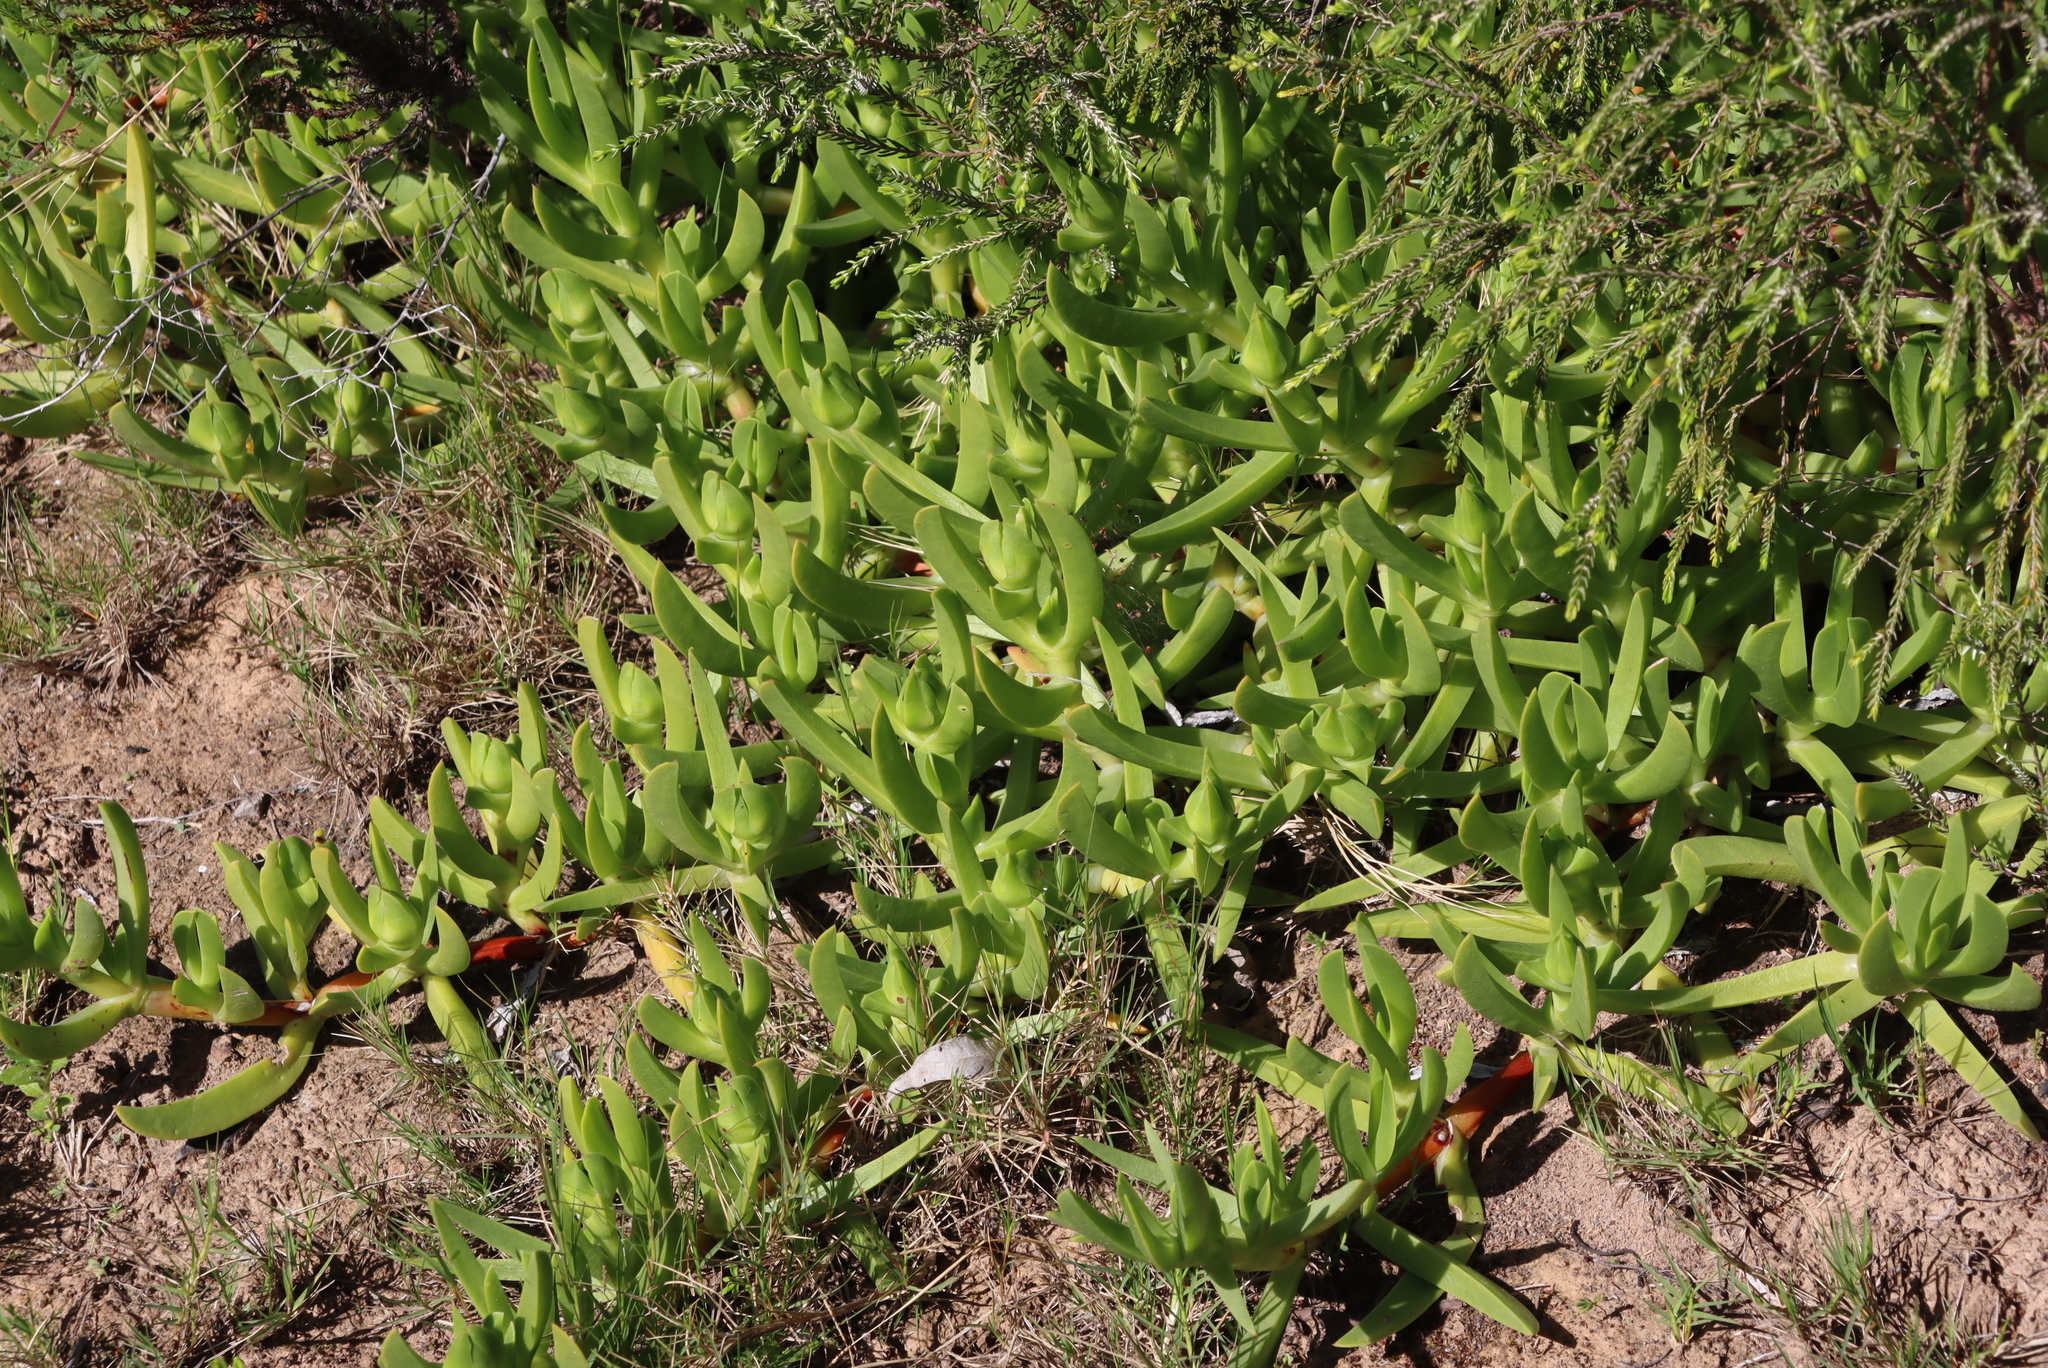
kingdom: Plantae
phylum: Tracheophyta
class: Magnoliopsida
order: Caryophyllales
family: Aizoaceae
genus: Carpobrotus
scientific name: Carpobrotus deliciosus
